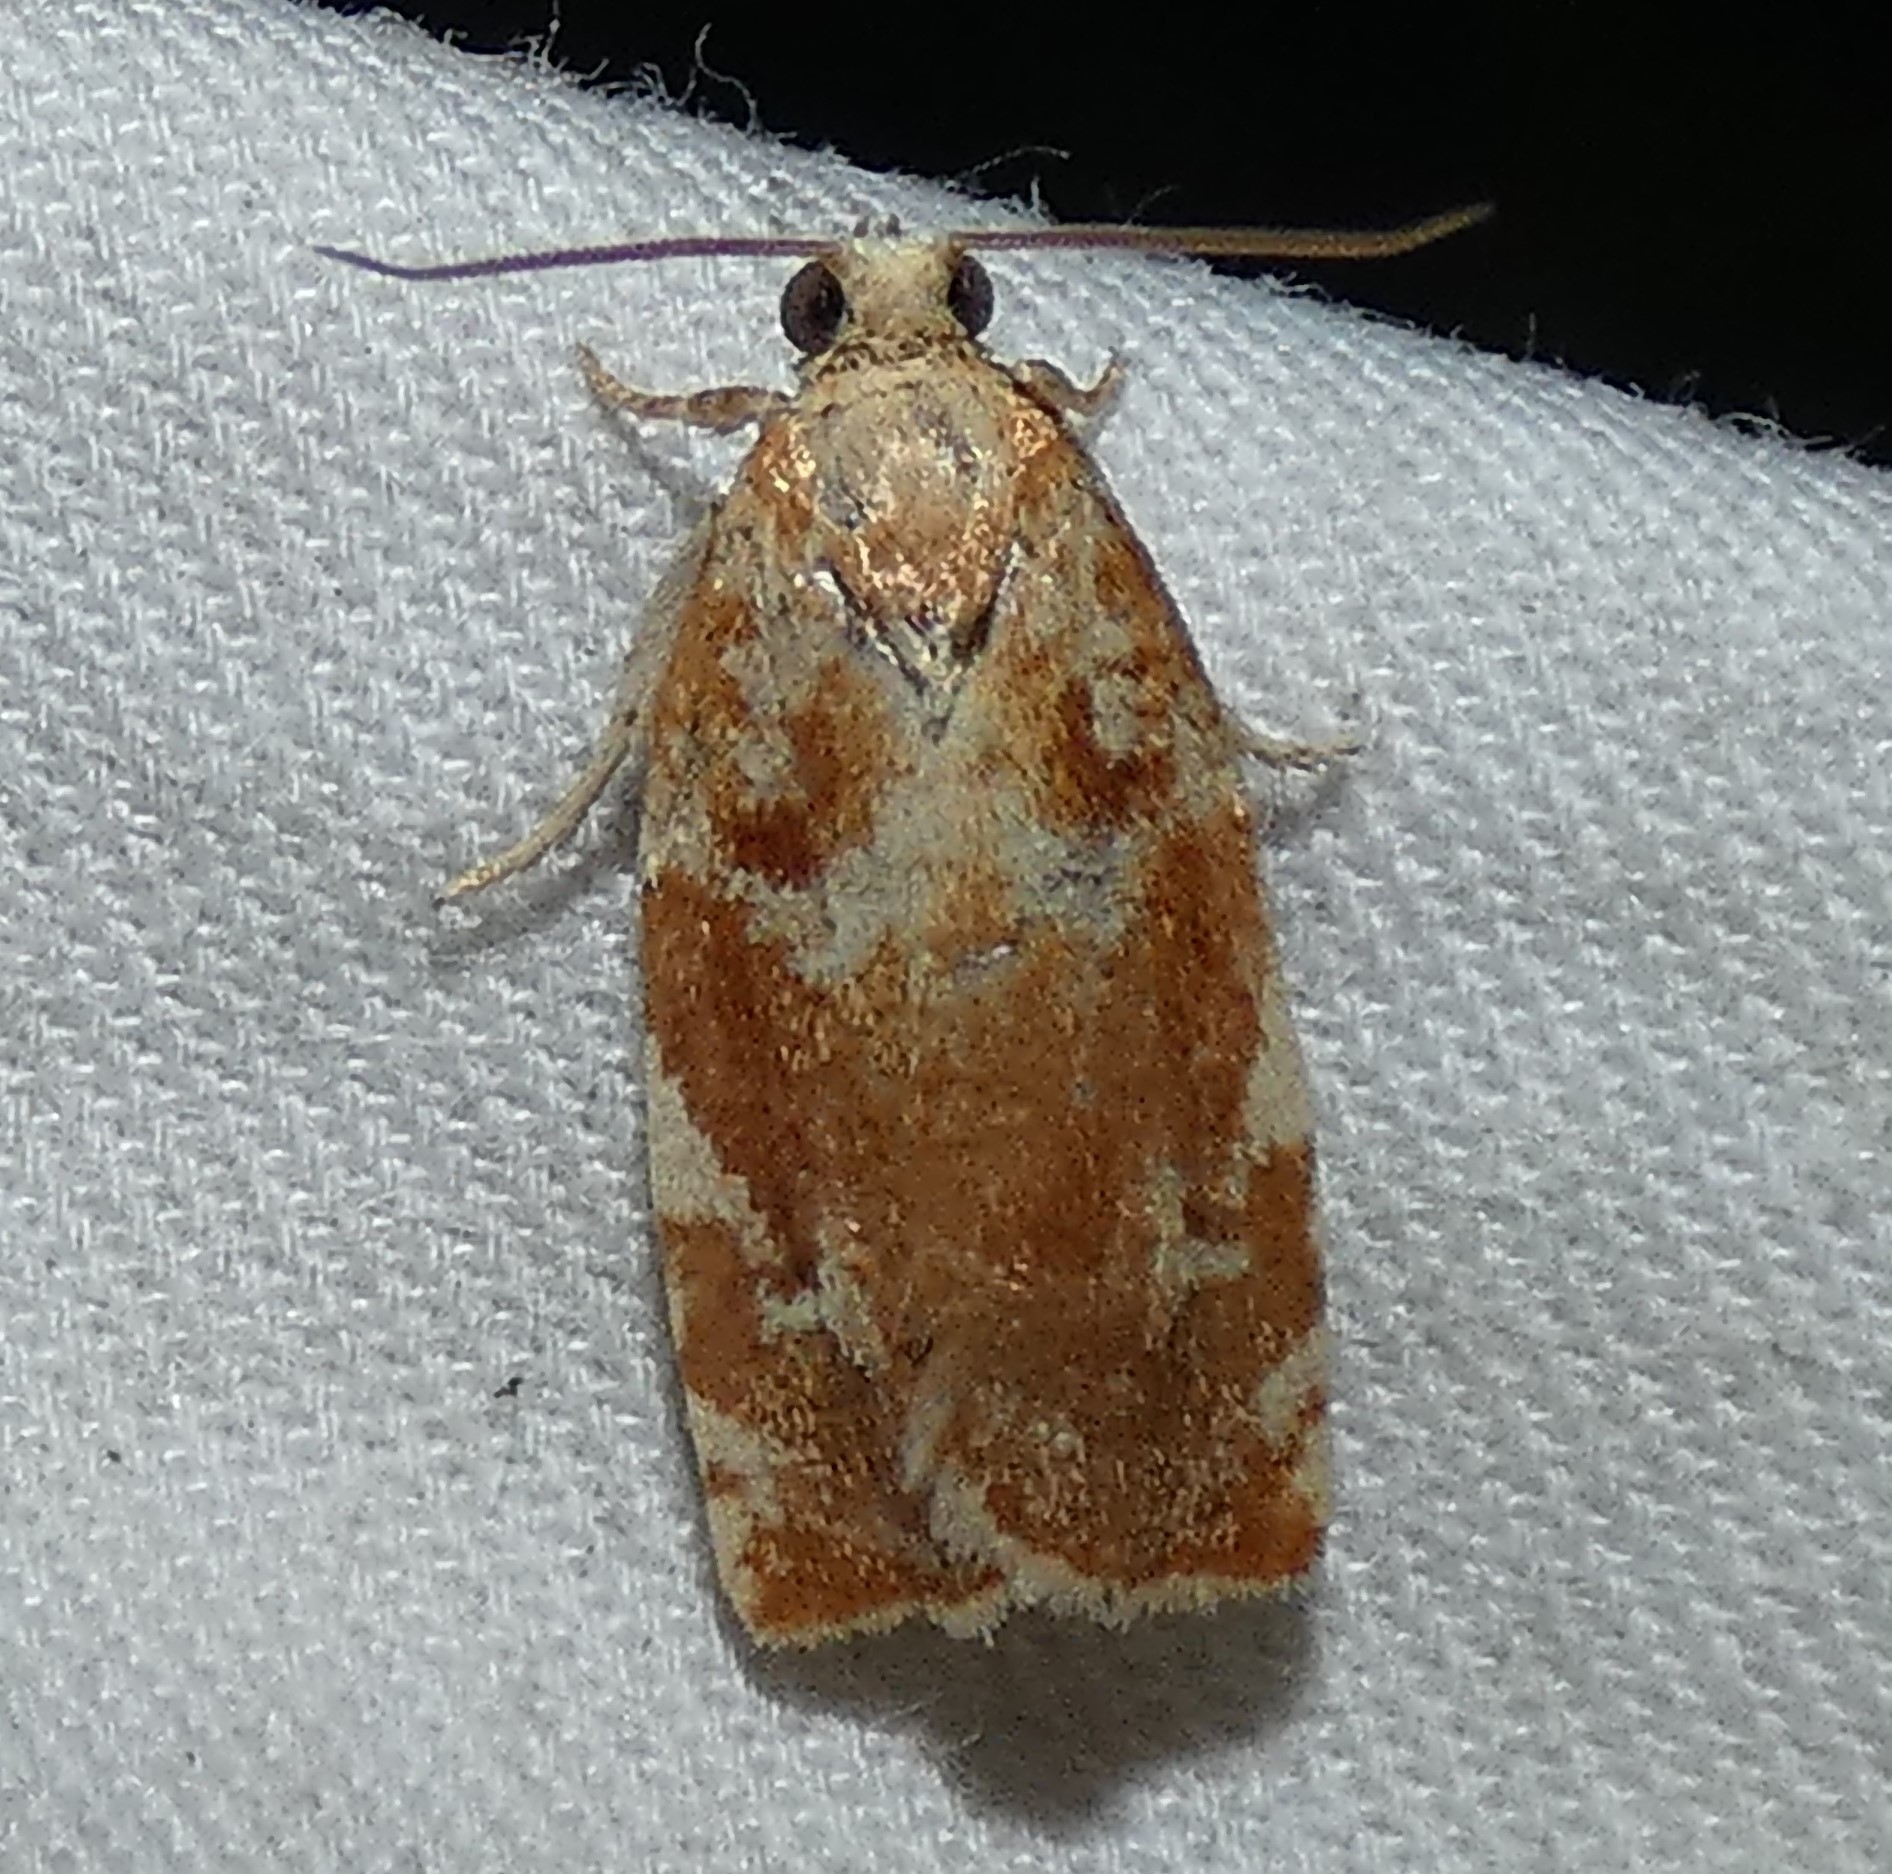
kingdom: Animalia
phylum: Arthropoda
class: Insecta
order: Lepidoptera
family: Tortricidae
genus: Archips
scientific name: Archips semiferanus
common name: Oak leafroller
